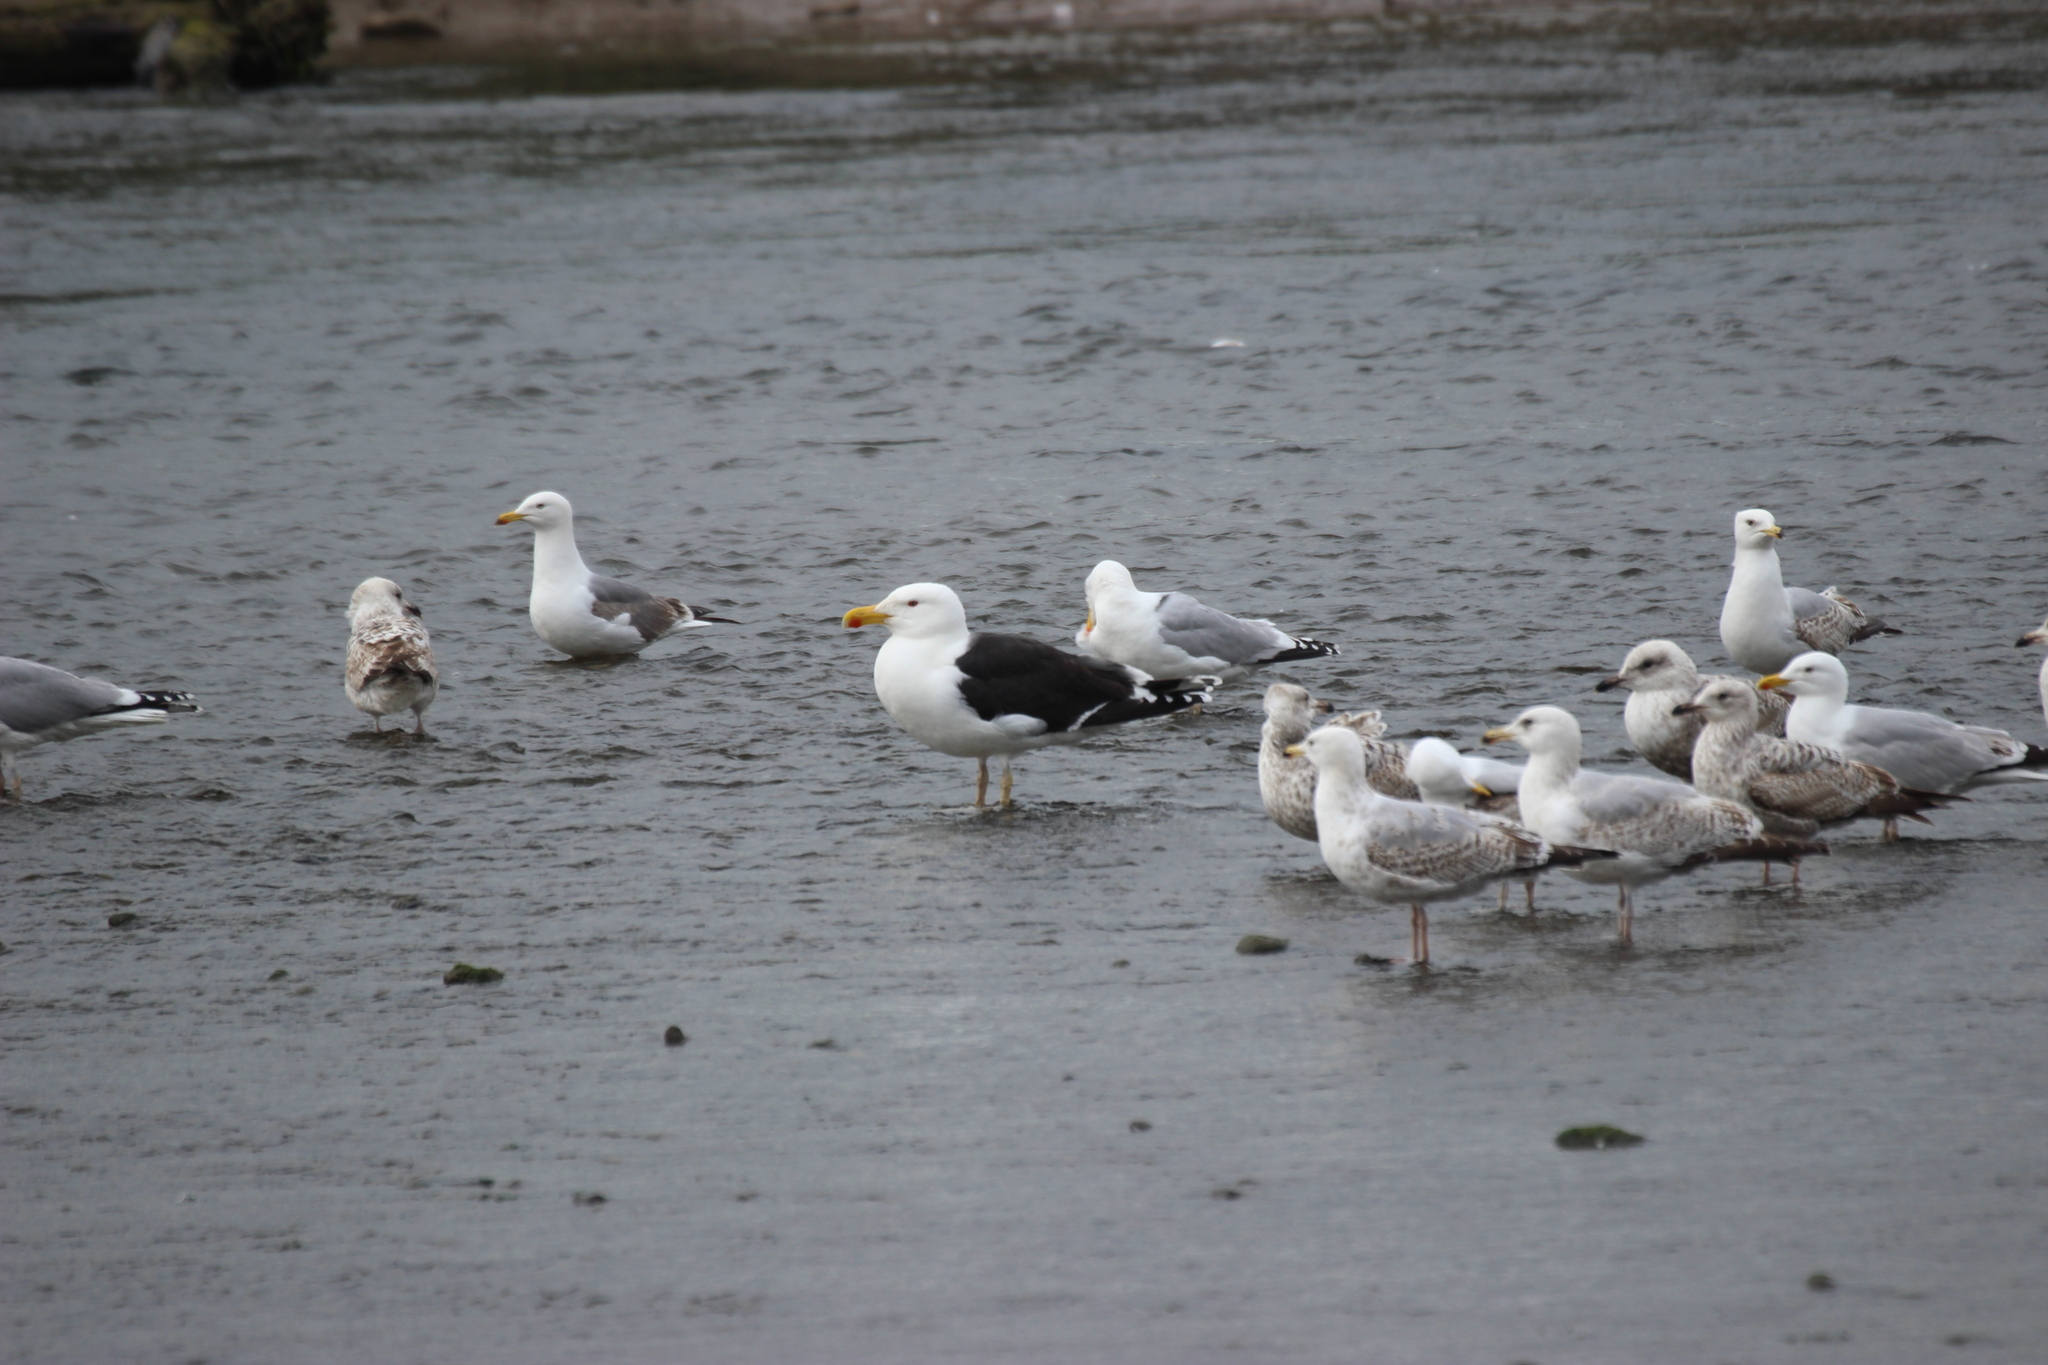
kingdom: Animalia
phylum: Chordata
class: Aves
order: Charadriiformes
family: Laridae
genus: Larus
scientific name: Larus marinus
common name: Great black-backed gull
